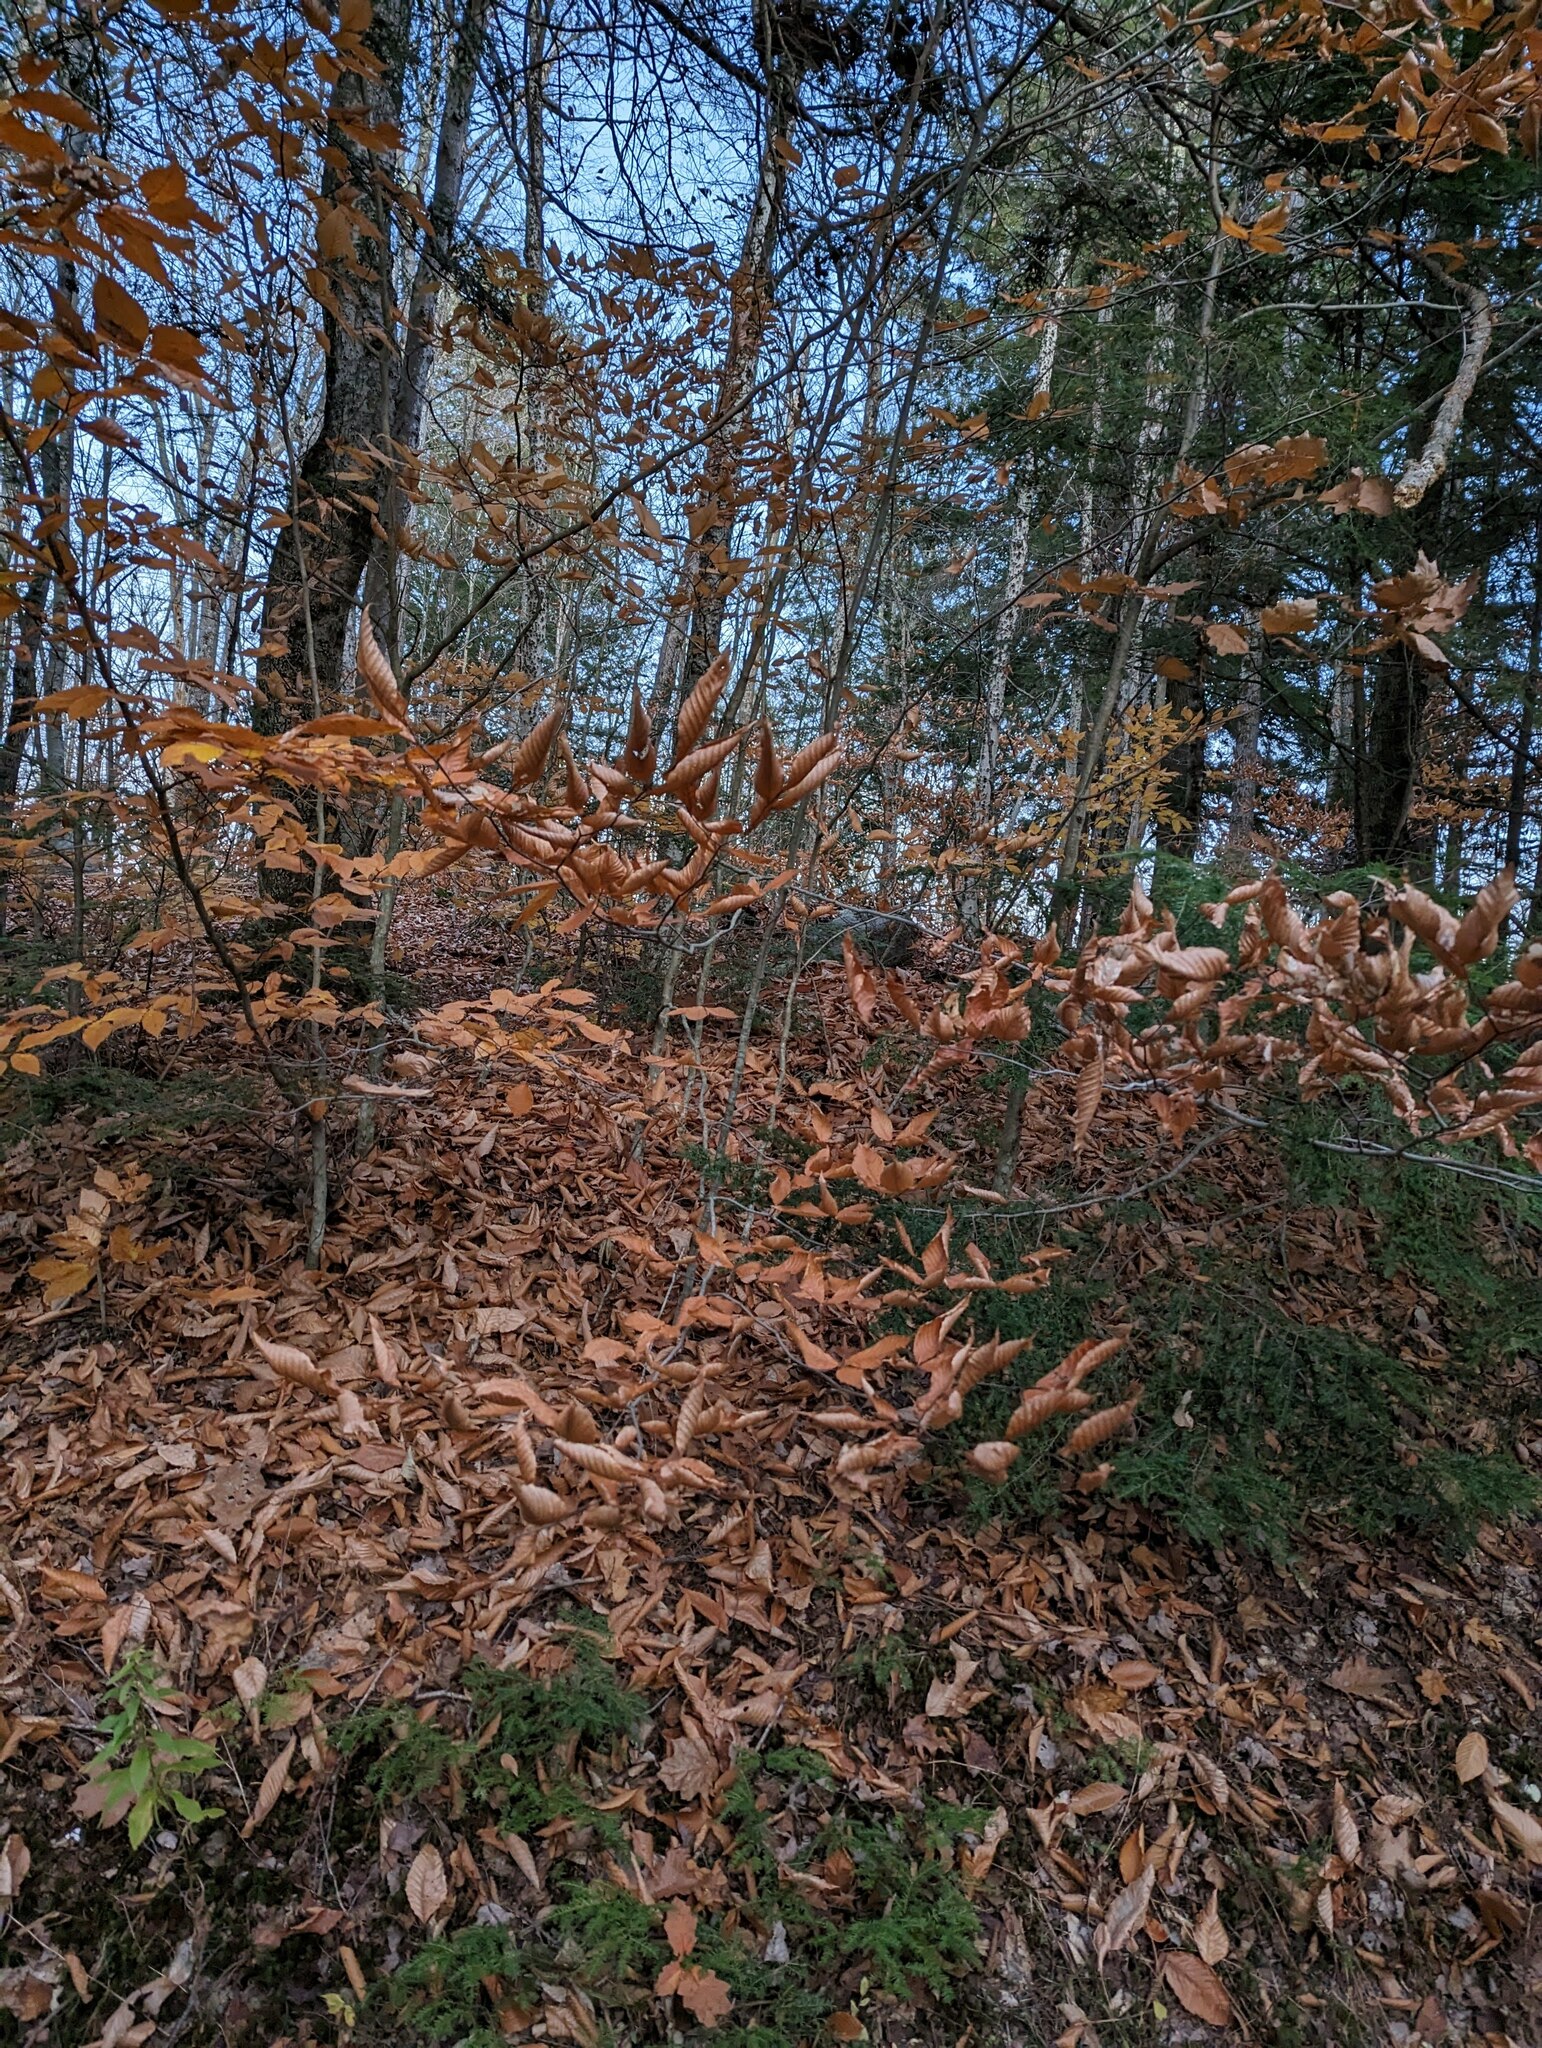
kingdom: Plantae
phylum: Tracheophyta
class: Magnoliopsida
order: Fagales
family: Fagaceae
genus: Fagus
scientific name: Fagus grandifolia
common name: American beech
